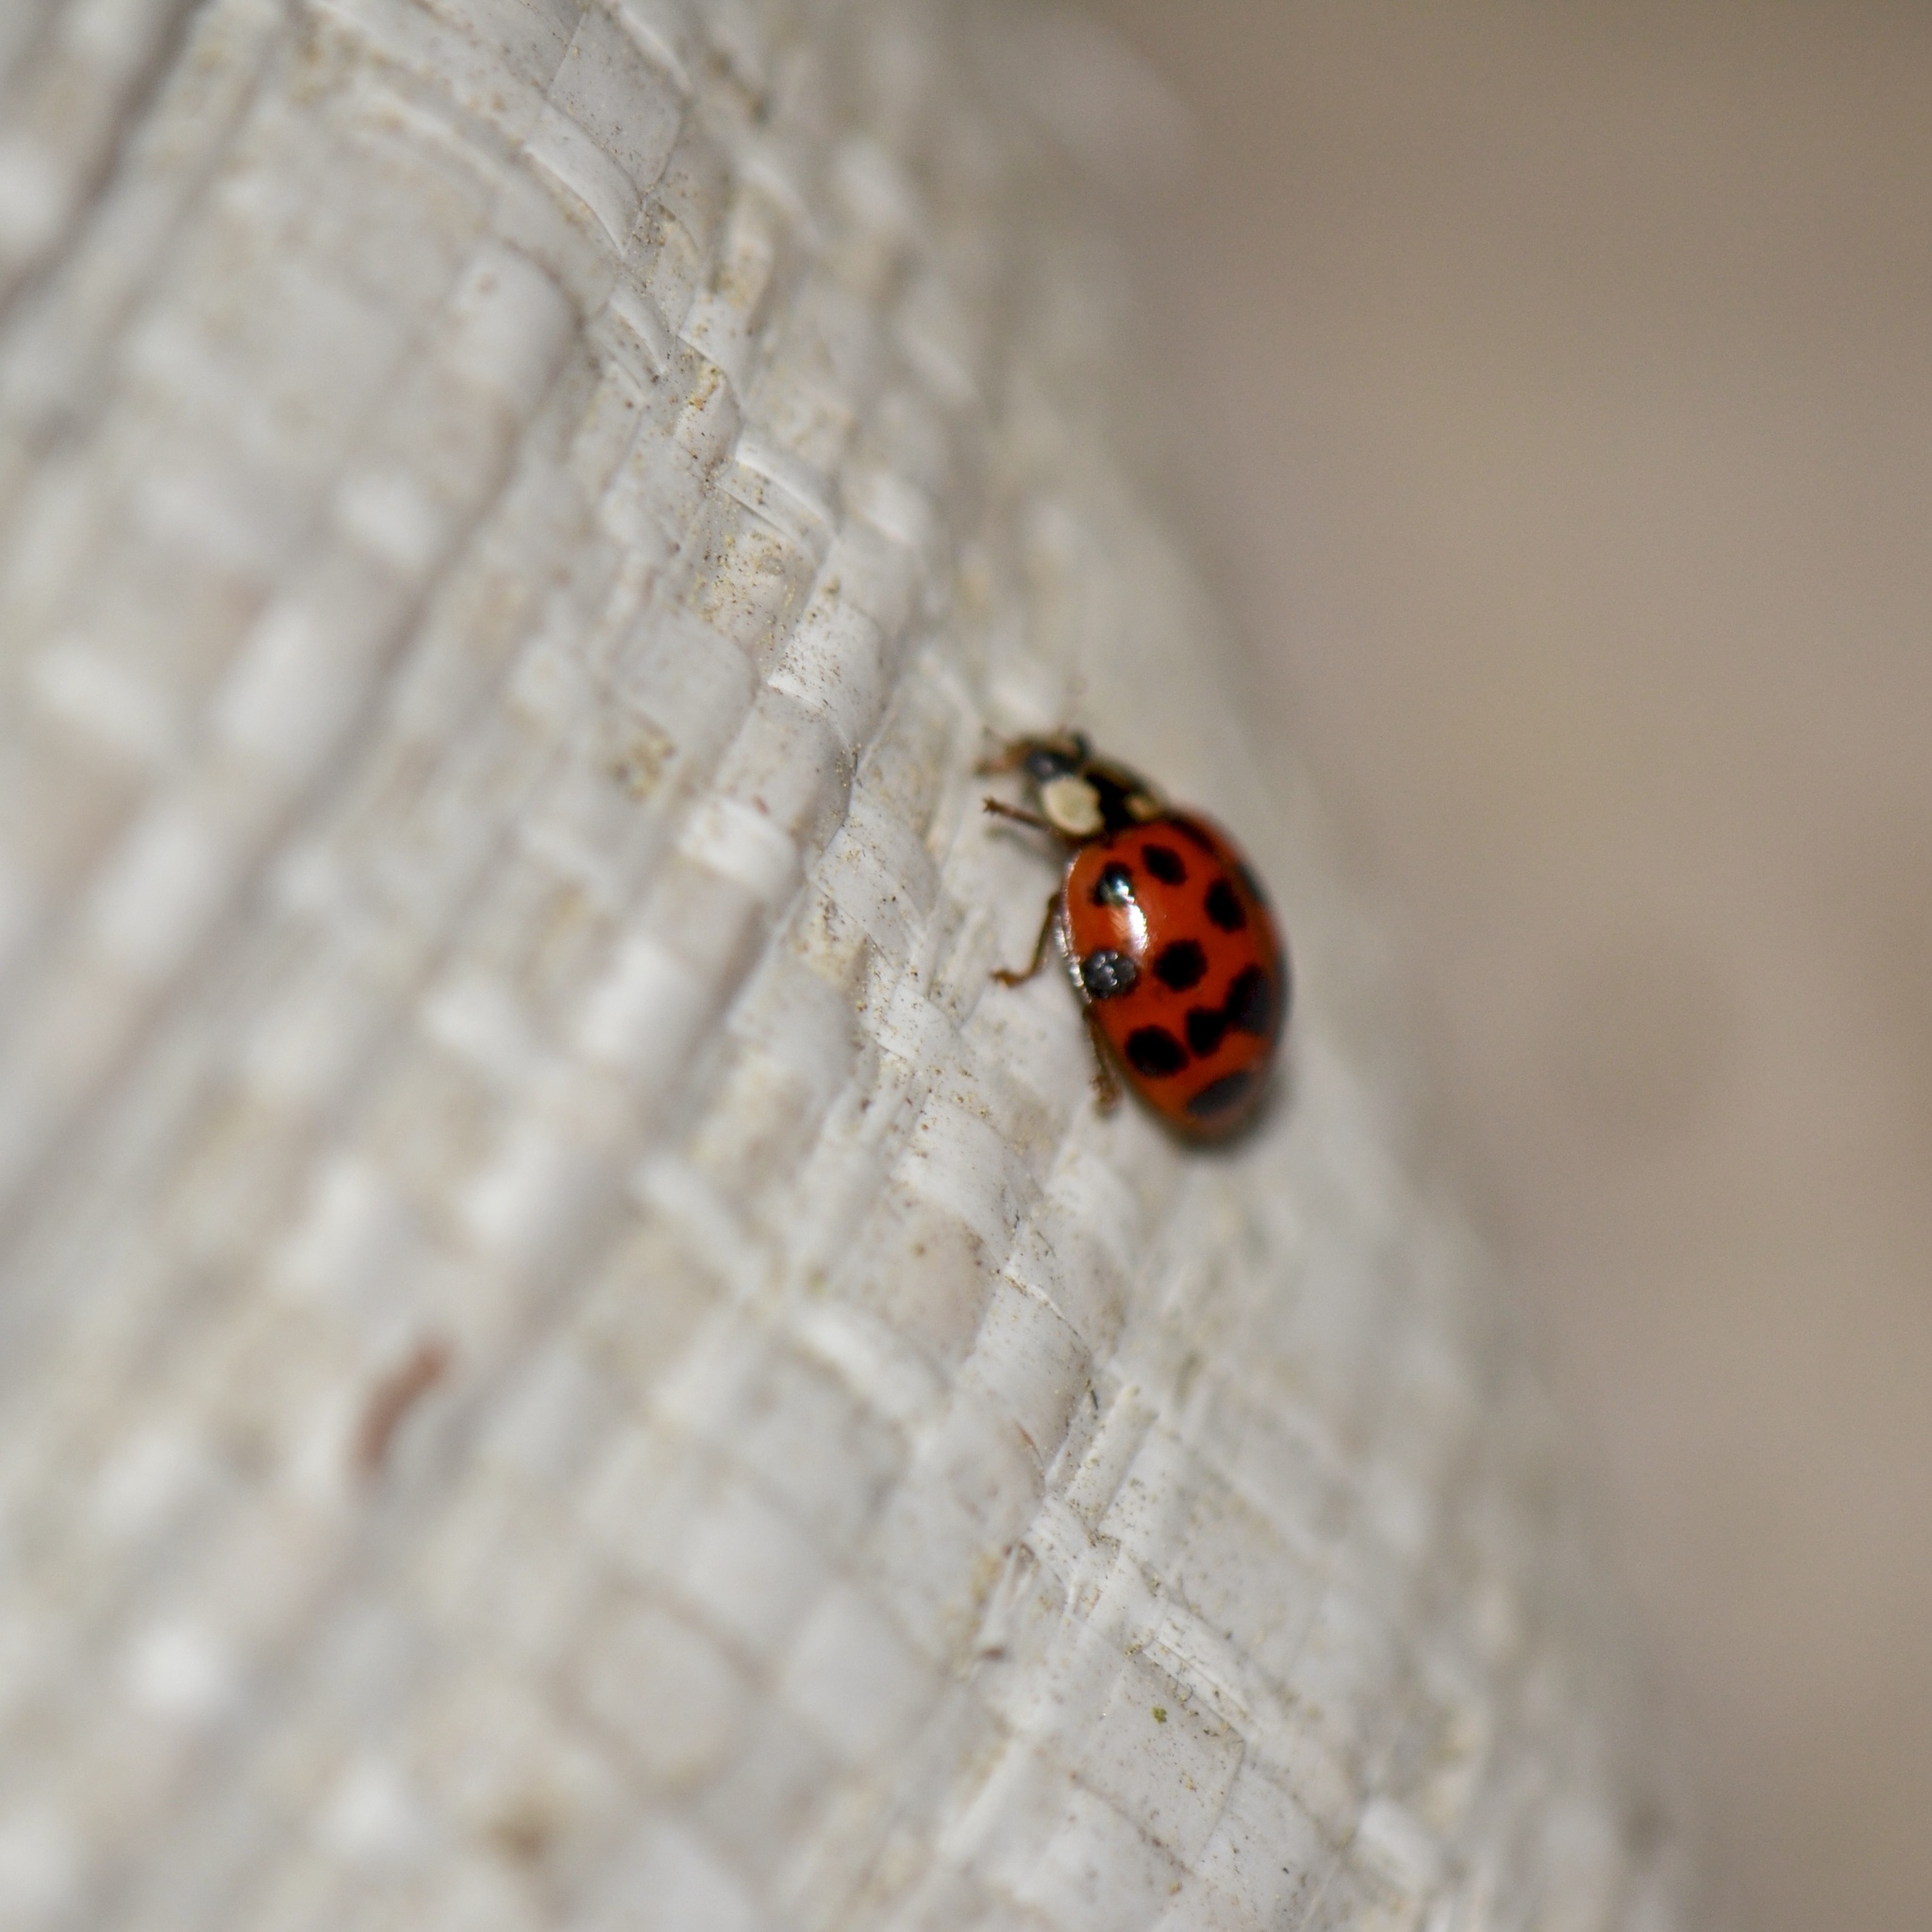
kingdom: Animalia
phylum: Arthropoda
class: Insecta
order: Coleoptera
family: Coccinellidae
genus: Harmonia
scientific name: Harmonia axyridis
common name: Harlequin ladybird
